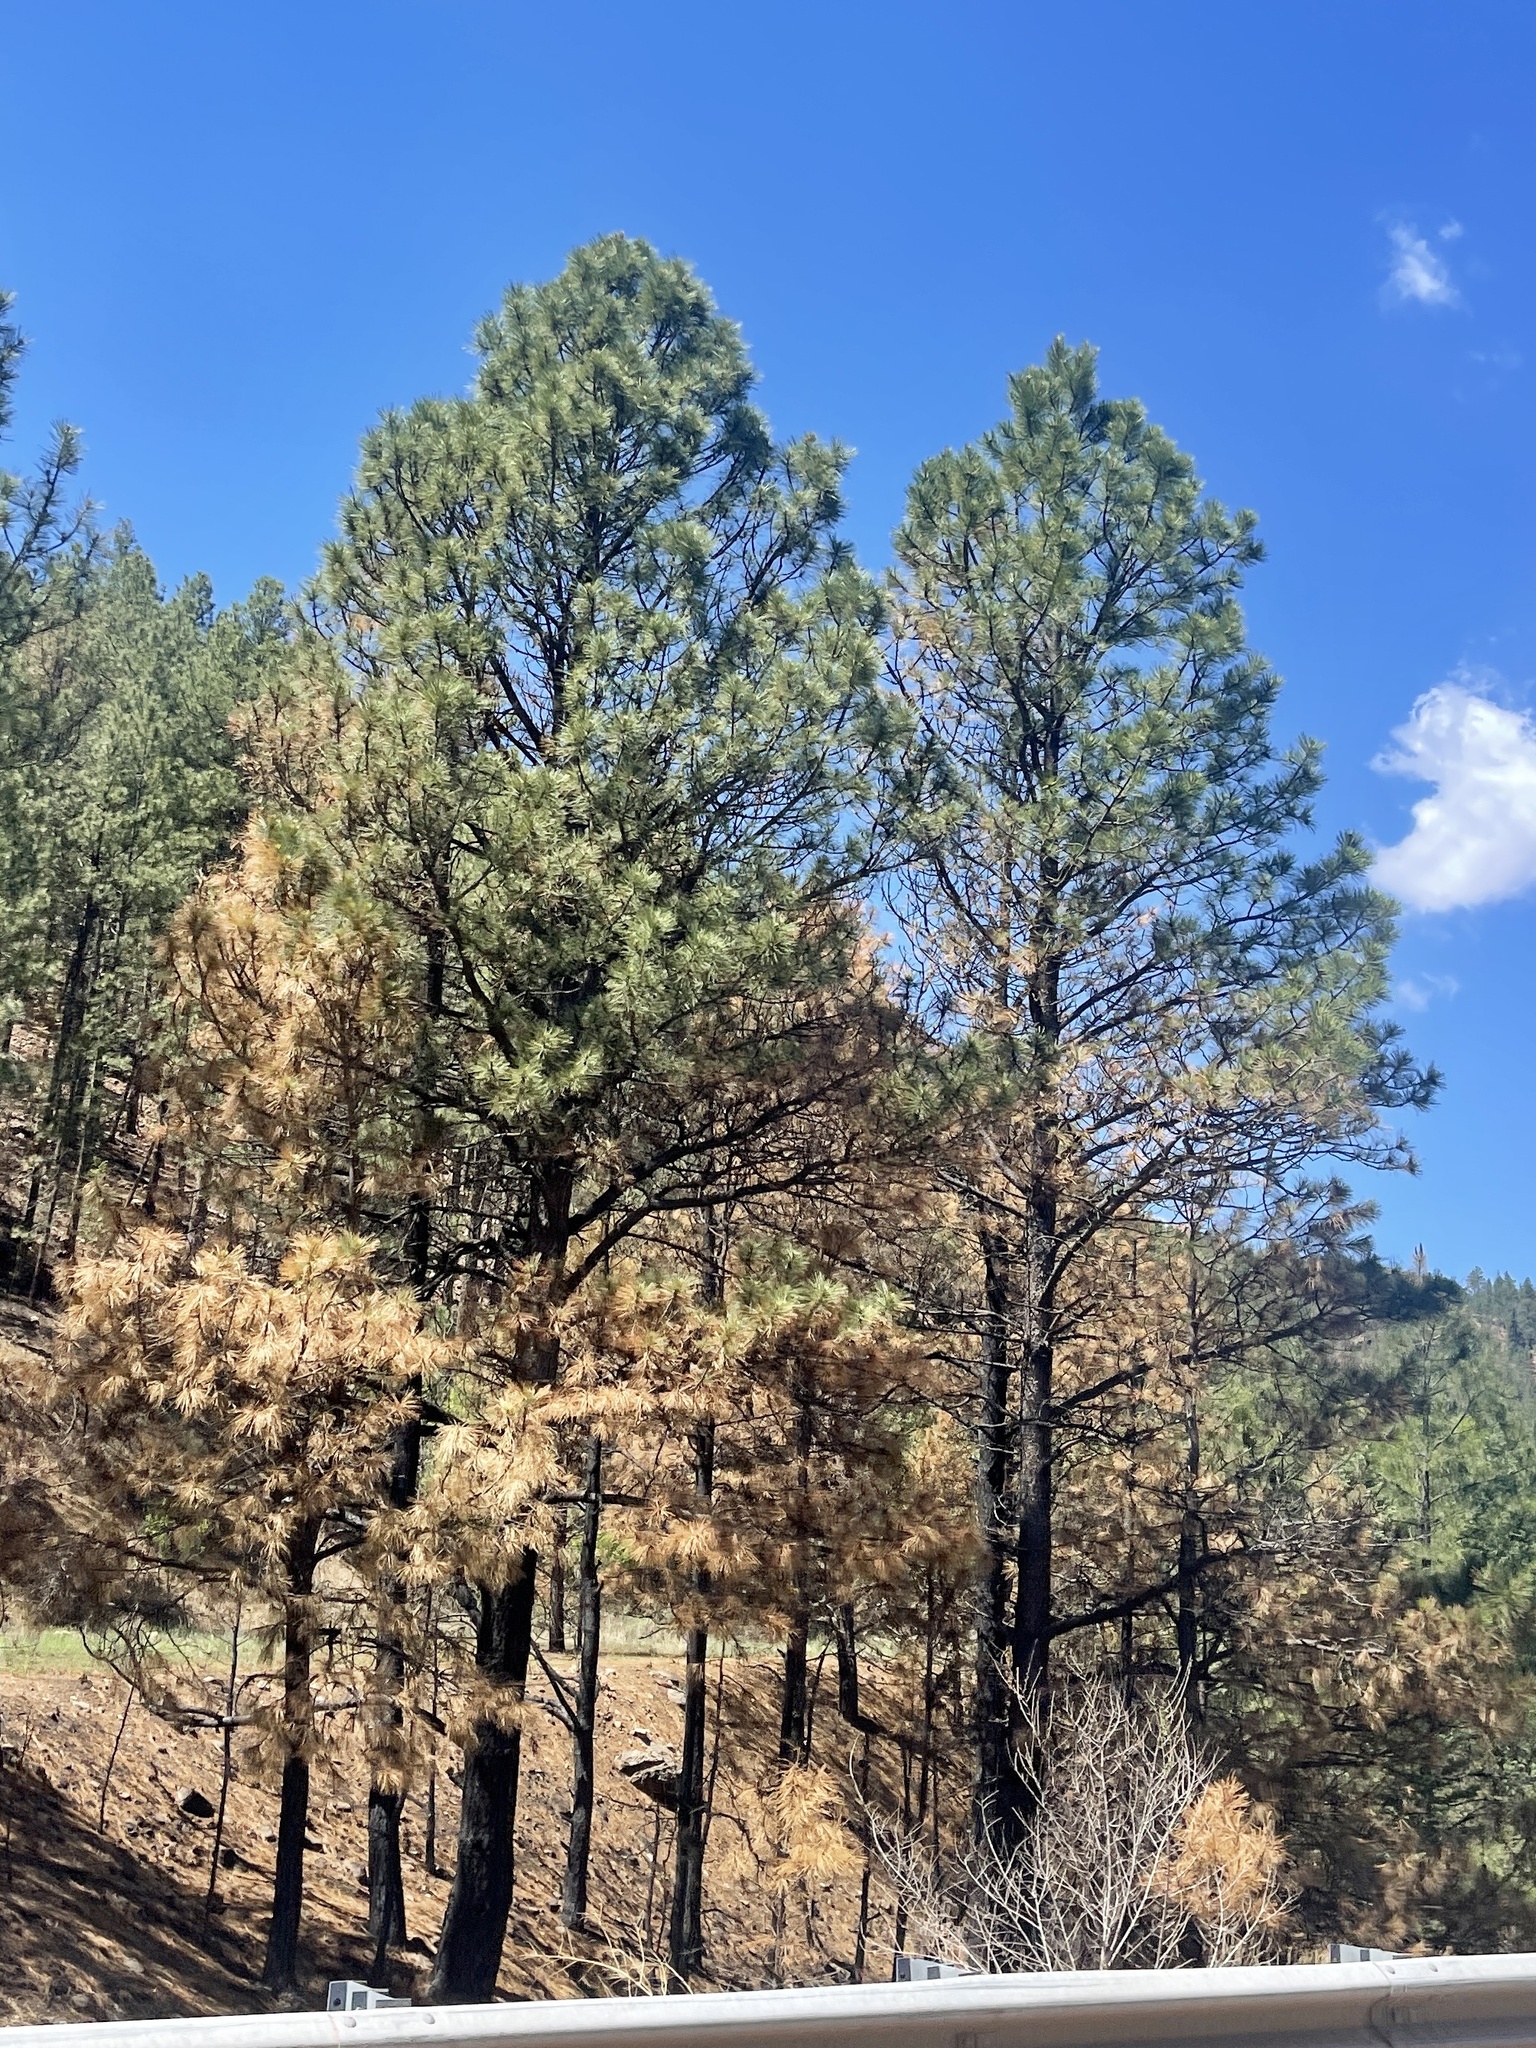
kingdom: Plantae
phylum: Tracheophyta
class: Pinopsida
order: Pinales
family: Pinaceae
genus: Pinus
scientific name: Pinus ponderosa
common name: Western yellow-pine
